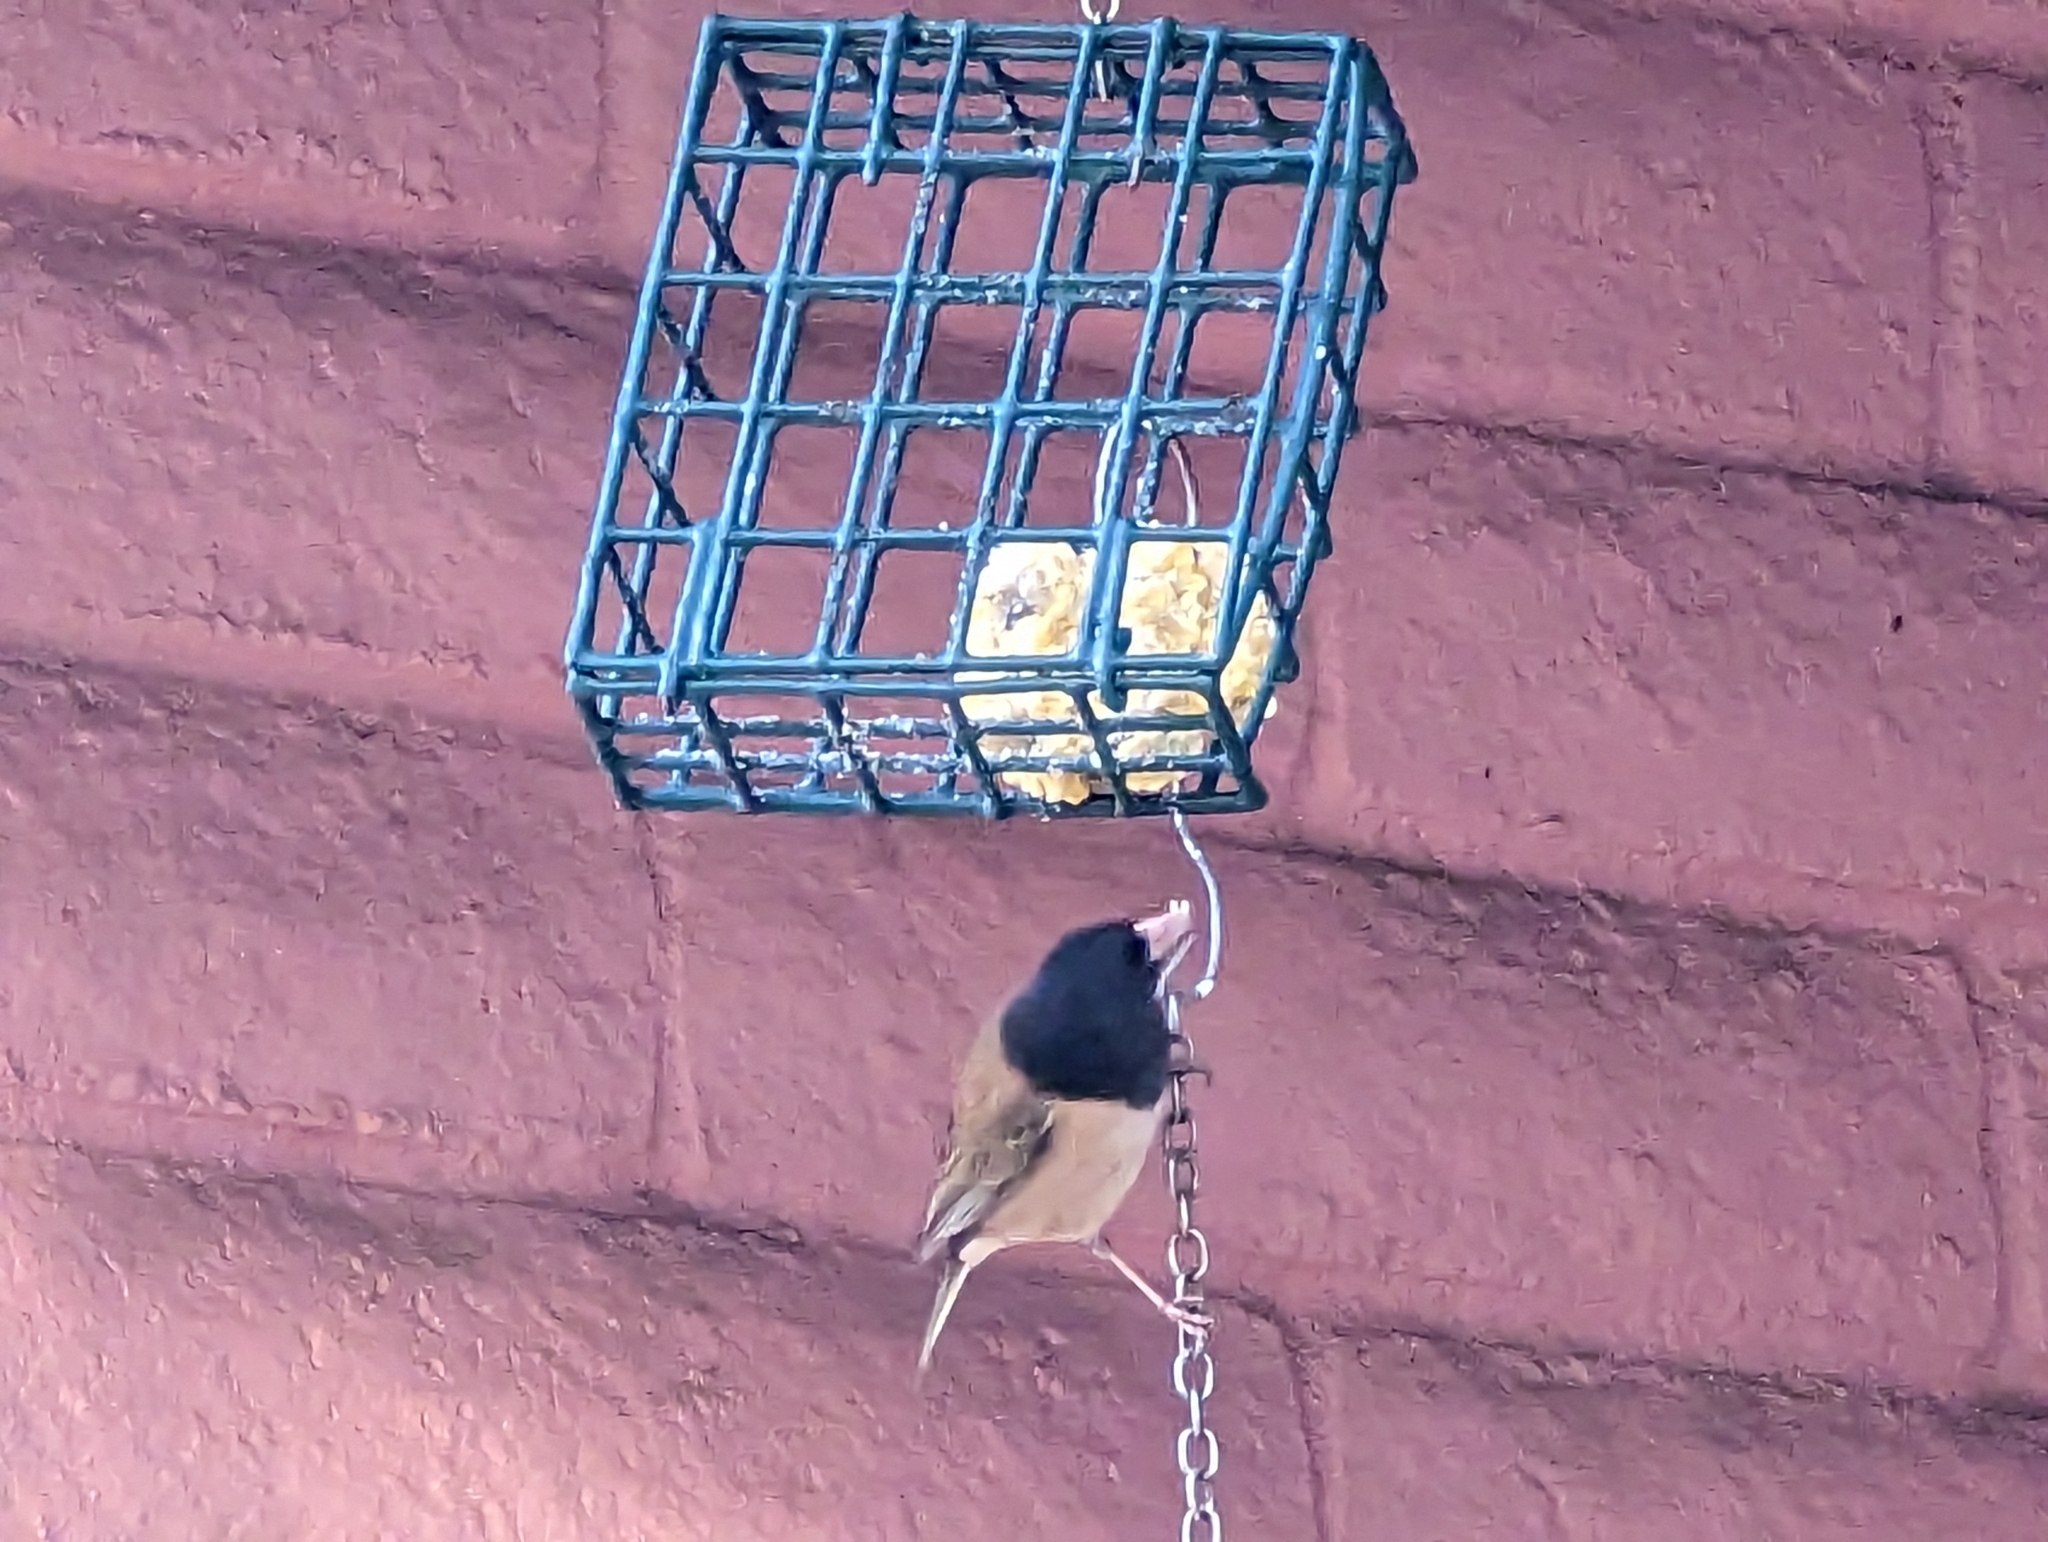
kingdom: Animalia
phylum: Chordata
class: Aves
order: Passeriformes
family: Passerellidae
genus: Junco
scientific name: Junco hyemalis
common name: Dark-eyed junco
